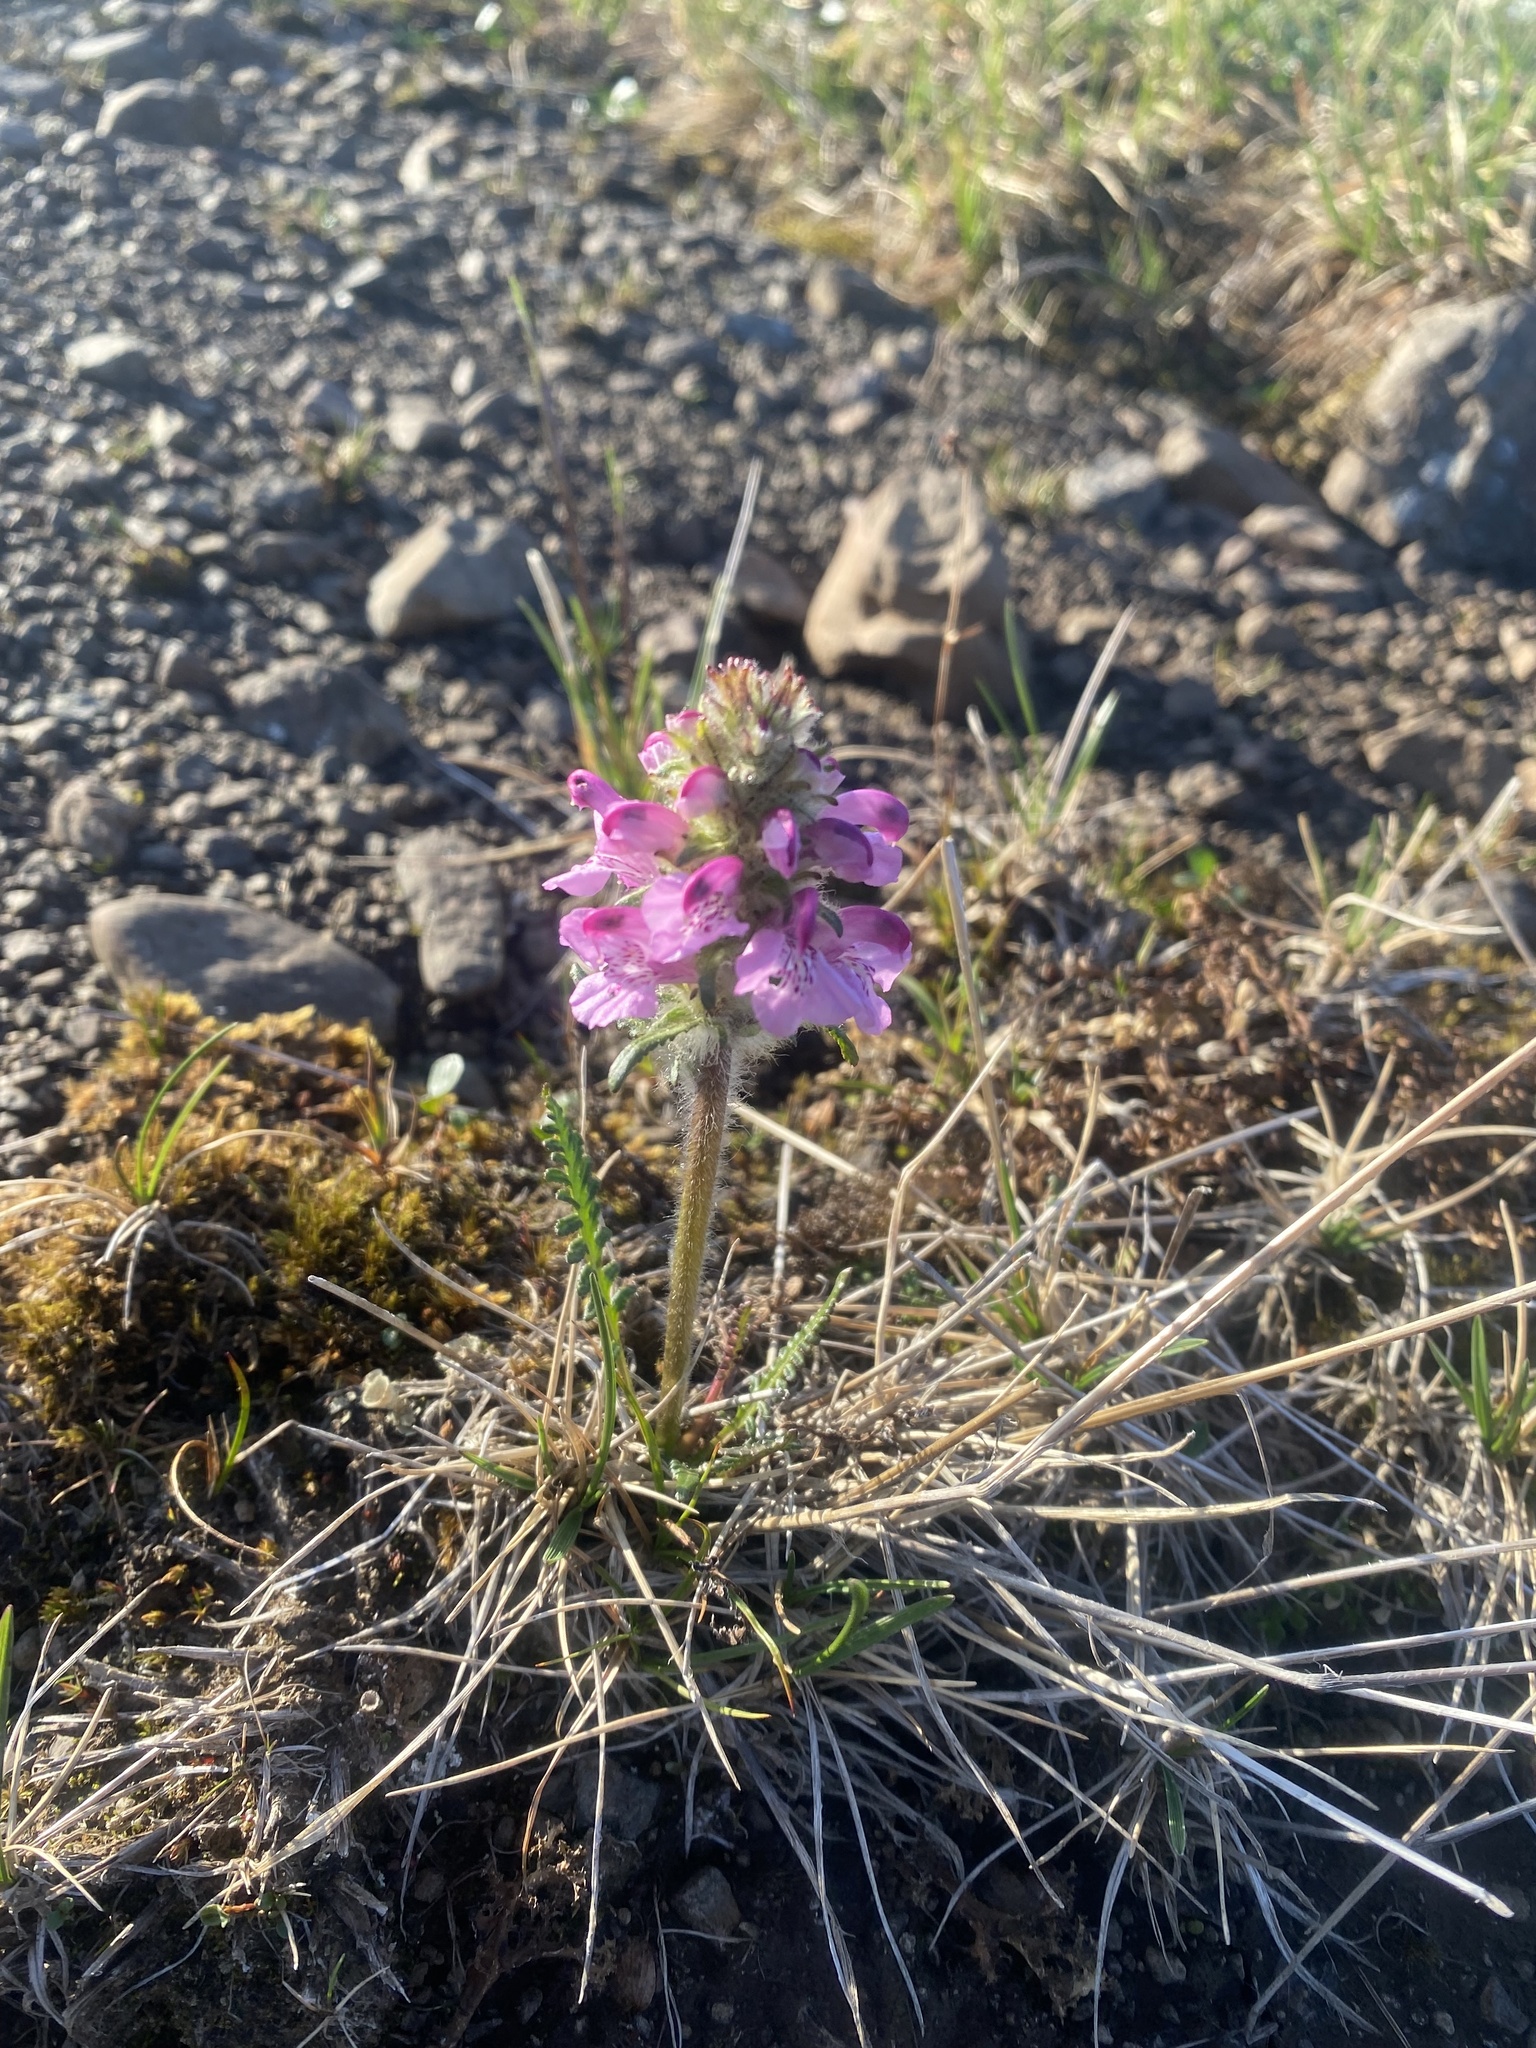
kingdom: Plantae
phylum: Tracheophyta
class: Magnoliopsida
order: Lamiales
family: Orobanchaceae
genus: Pedicularis
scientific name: Pedicularis novaiae-zemliae
